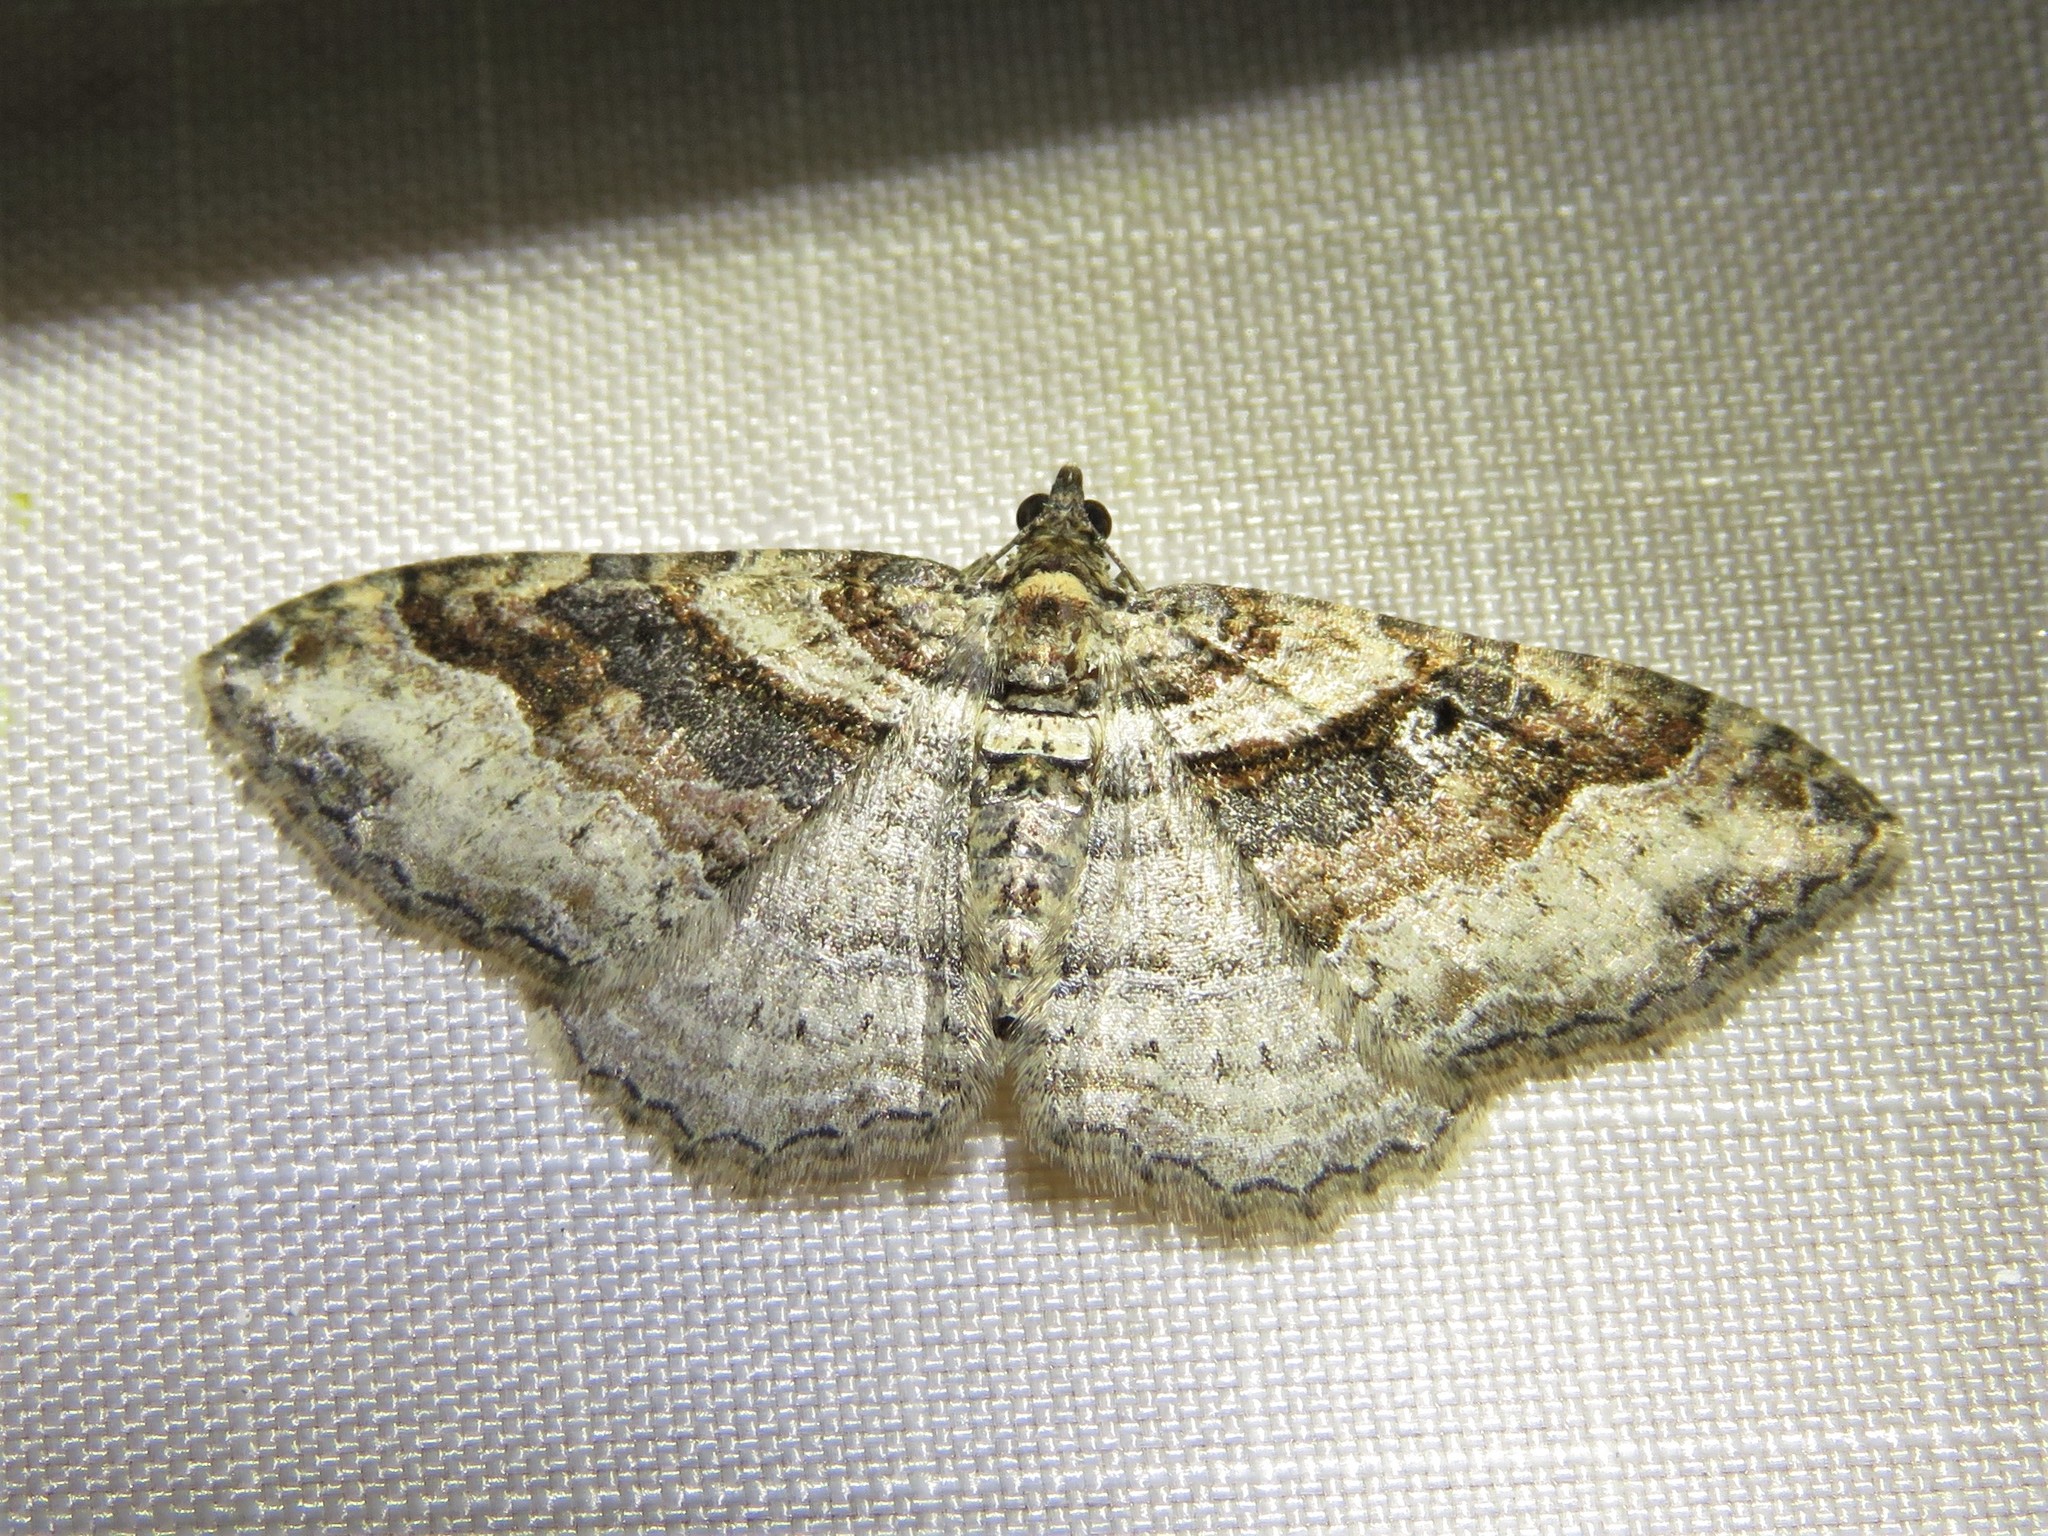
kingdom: Animalia
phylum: Arthropoda
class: Insecta
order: Lepidoptera
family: Geometridae
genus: Costaconvexa
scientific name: Costaconvexa centrostrigaria
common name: Bent-line carpet
